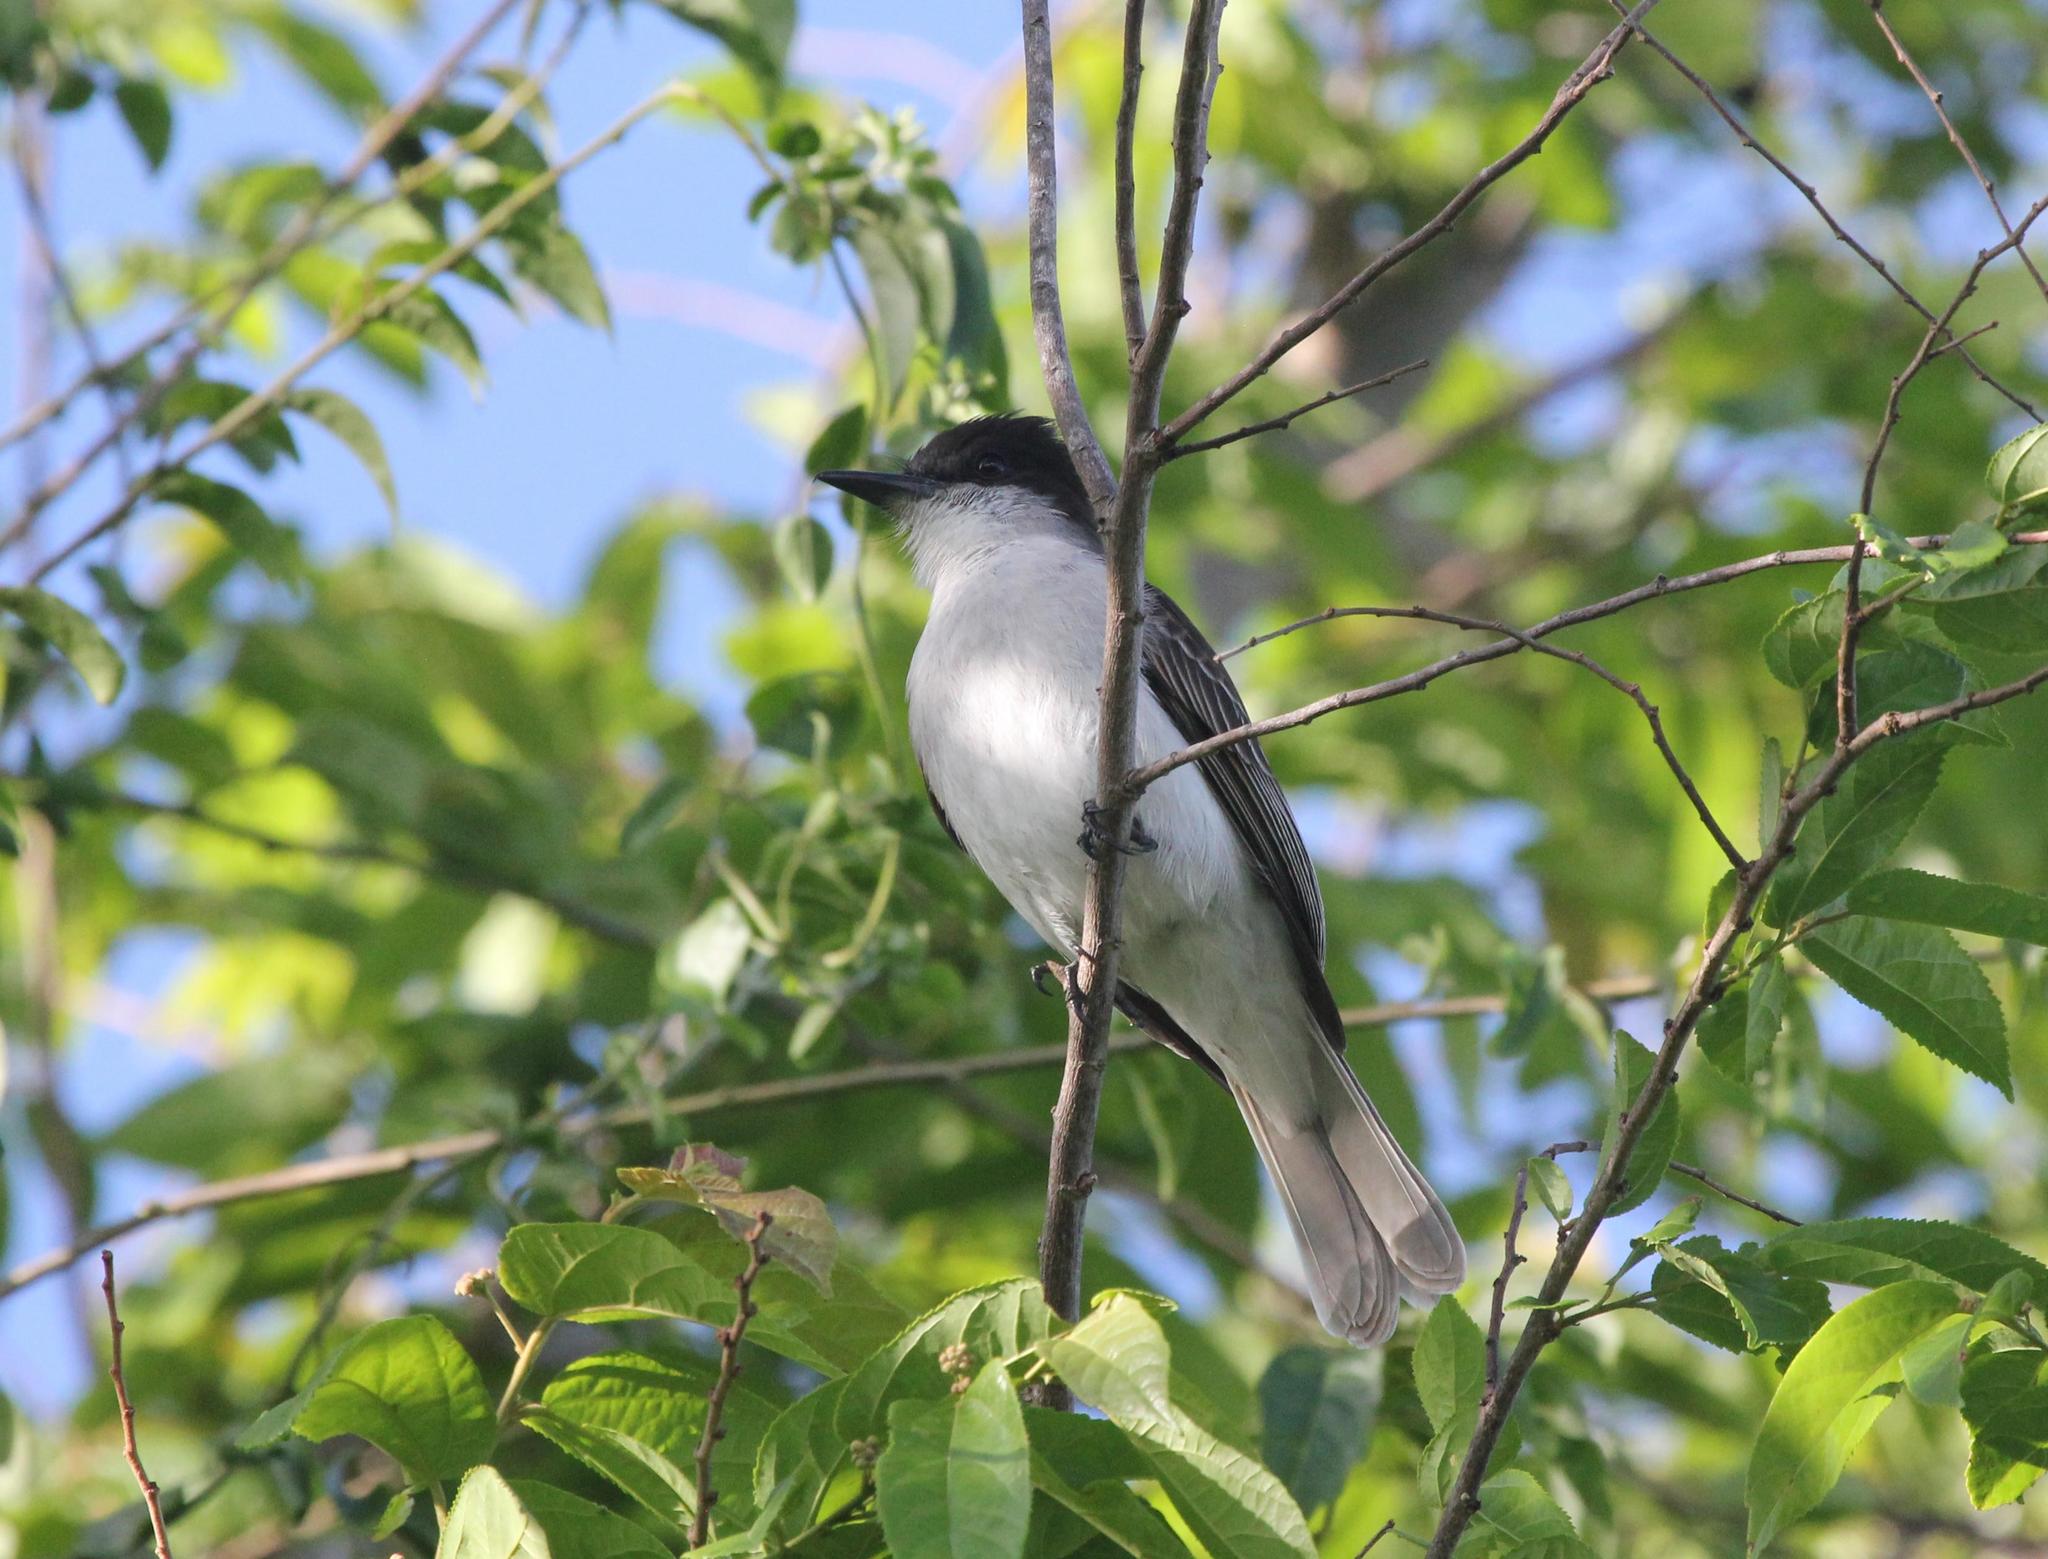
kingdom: Animalia
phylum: Chordata
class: Aves
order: Passeriformes
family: Tyrannidae
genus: Tyrannus
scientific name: Tyrannus caudifasciatus
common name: Loggerhead kingbird
